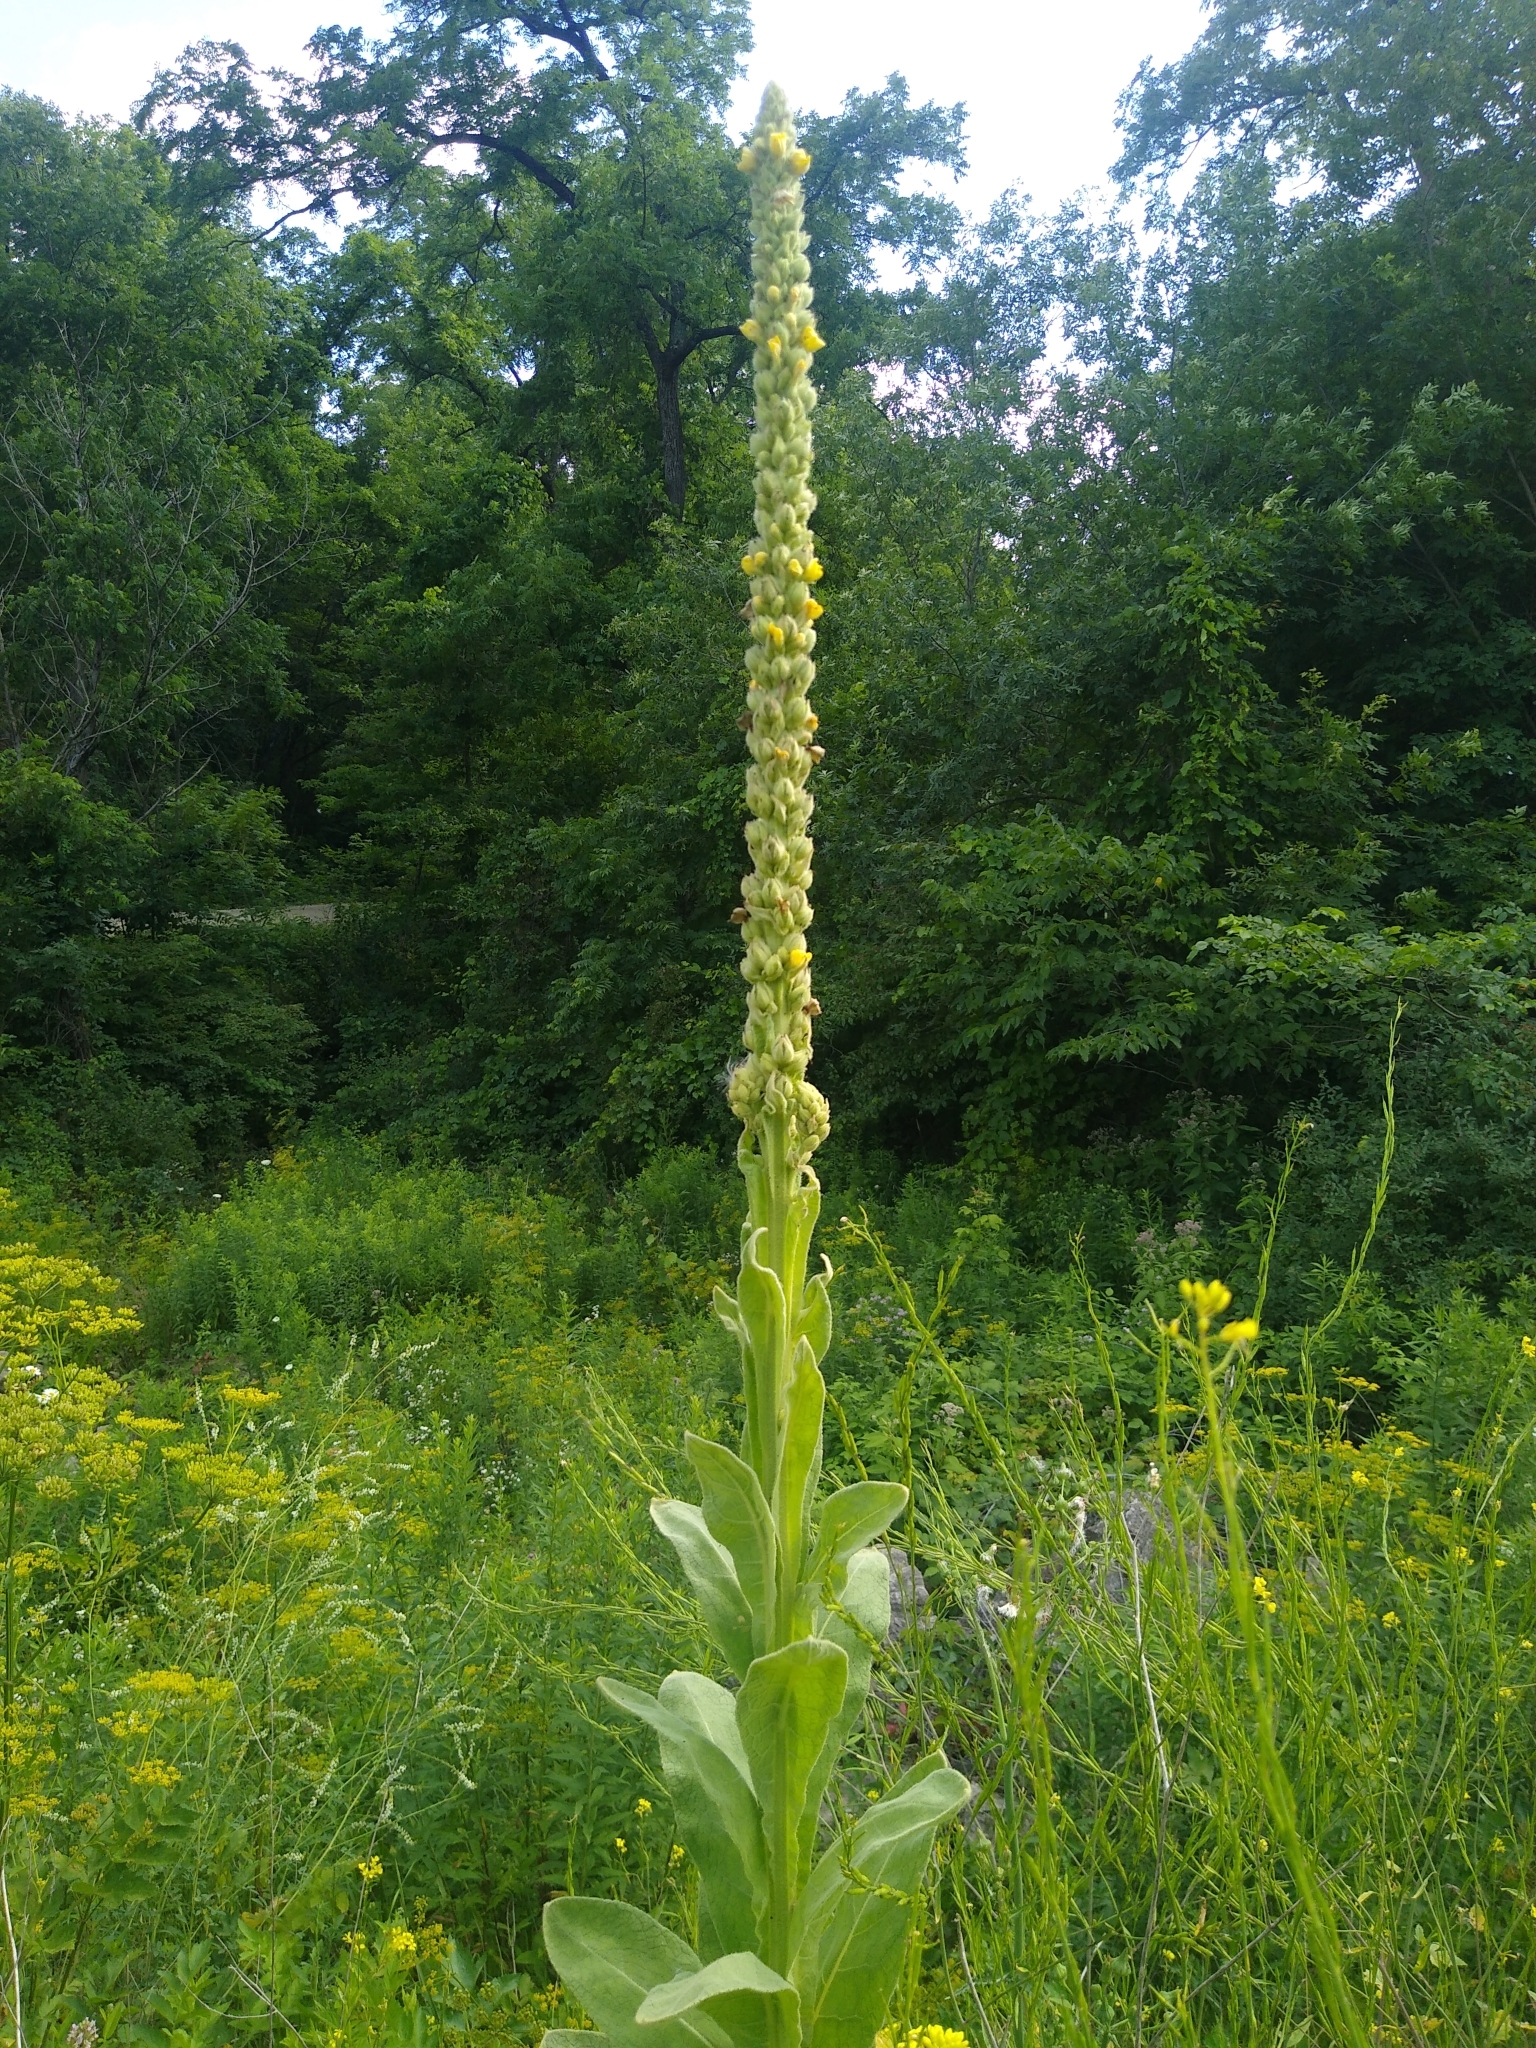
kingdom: Plantae
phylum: Tracheophyta
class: Magnoliopsida
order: Lamiales
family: Scrophulariaceae
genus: Verbascum
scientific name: Verbascum thapsus
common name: Common mullein
